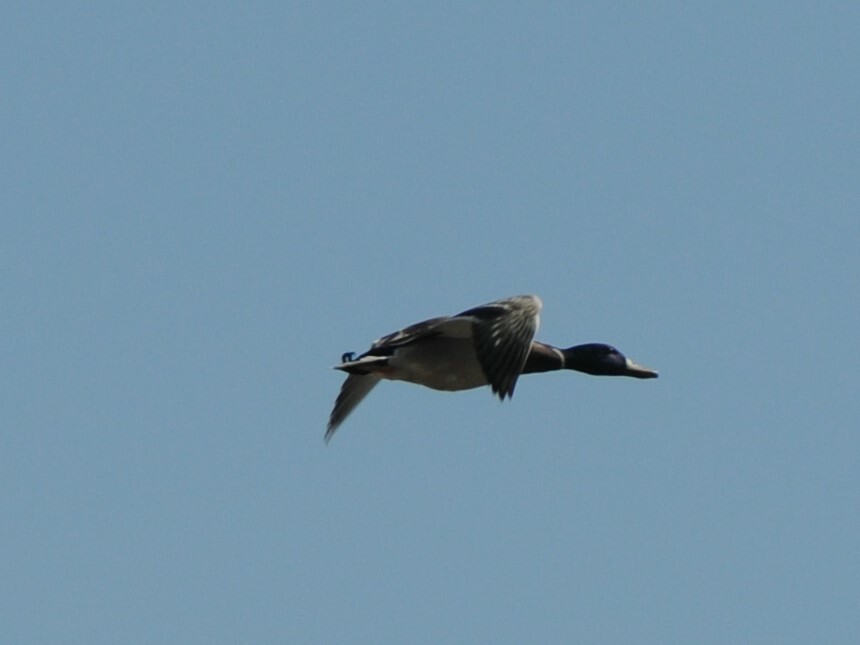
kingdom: Animalia
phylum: Chordata
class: Aves
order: Anseriformes
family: Anatidae
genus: Anas
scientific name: Anas platyrhynchos
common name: Mallard
